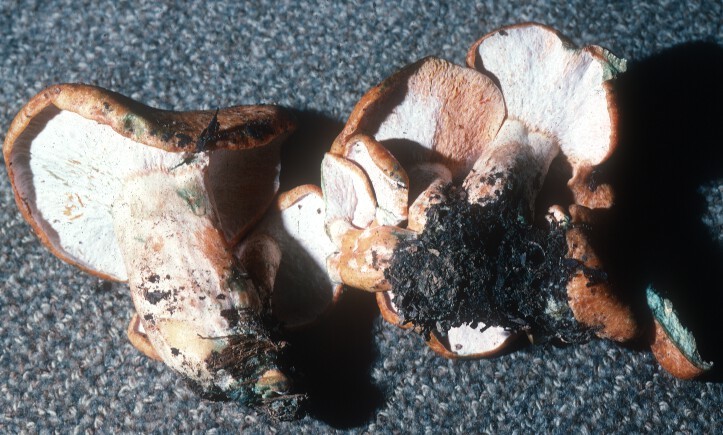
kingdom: Fungi
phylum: Ascomycota
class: Sordariomycetes
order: Hypocreales
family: Hypocreaceae
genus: Hypomyces
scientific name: Hypomyces lateritius
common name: Ochre gillgobbler
